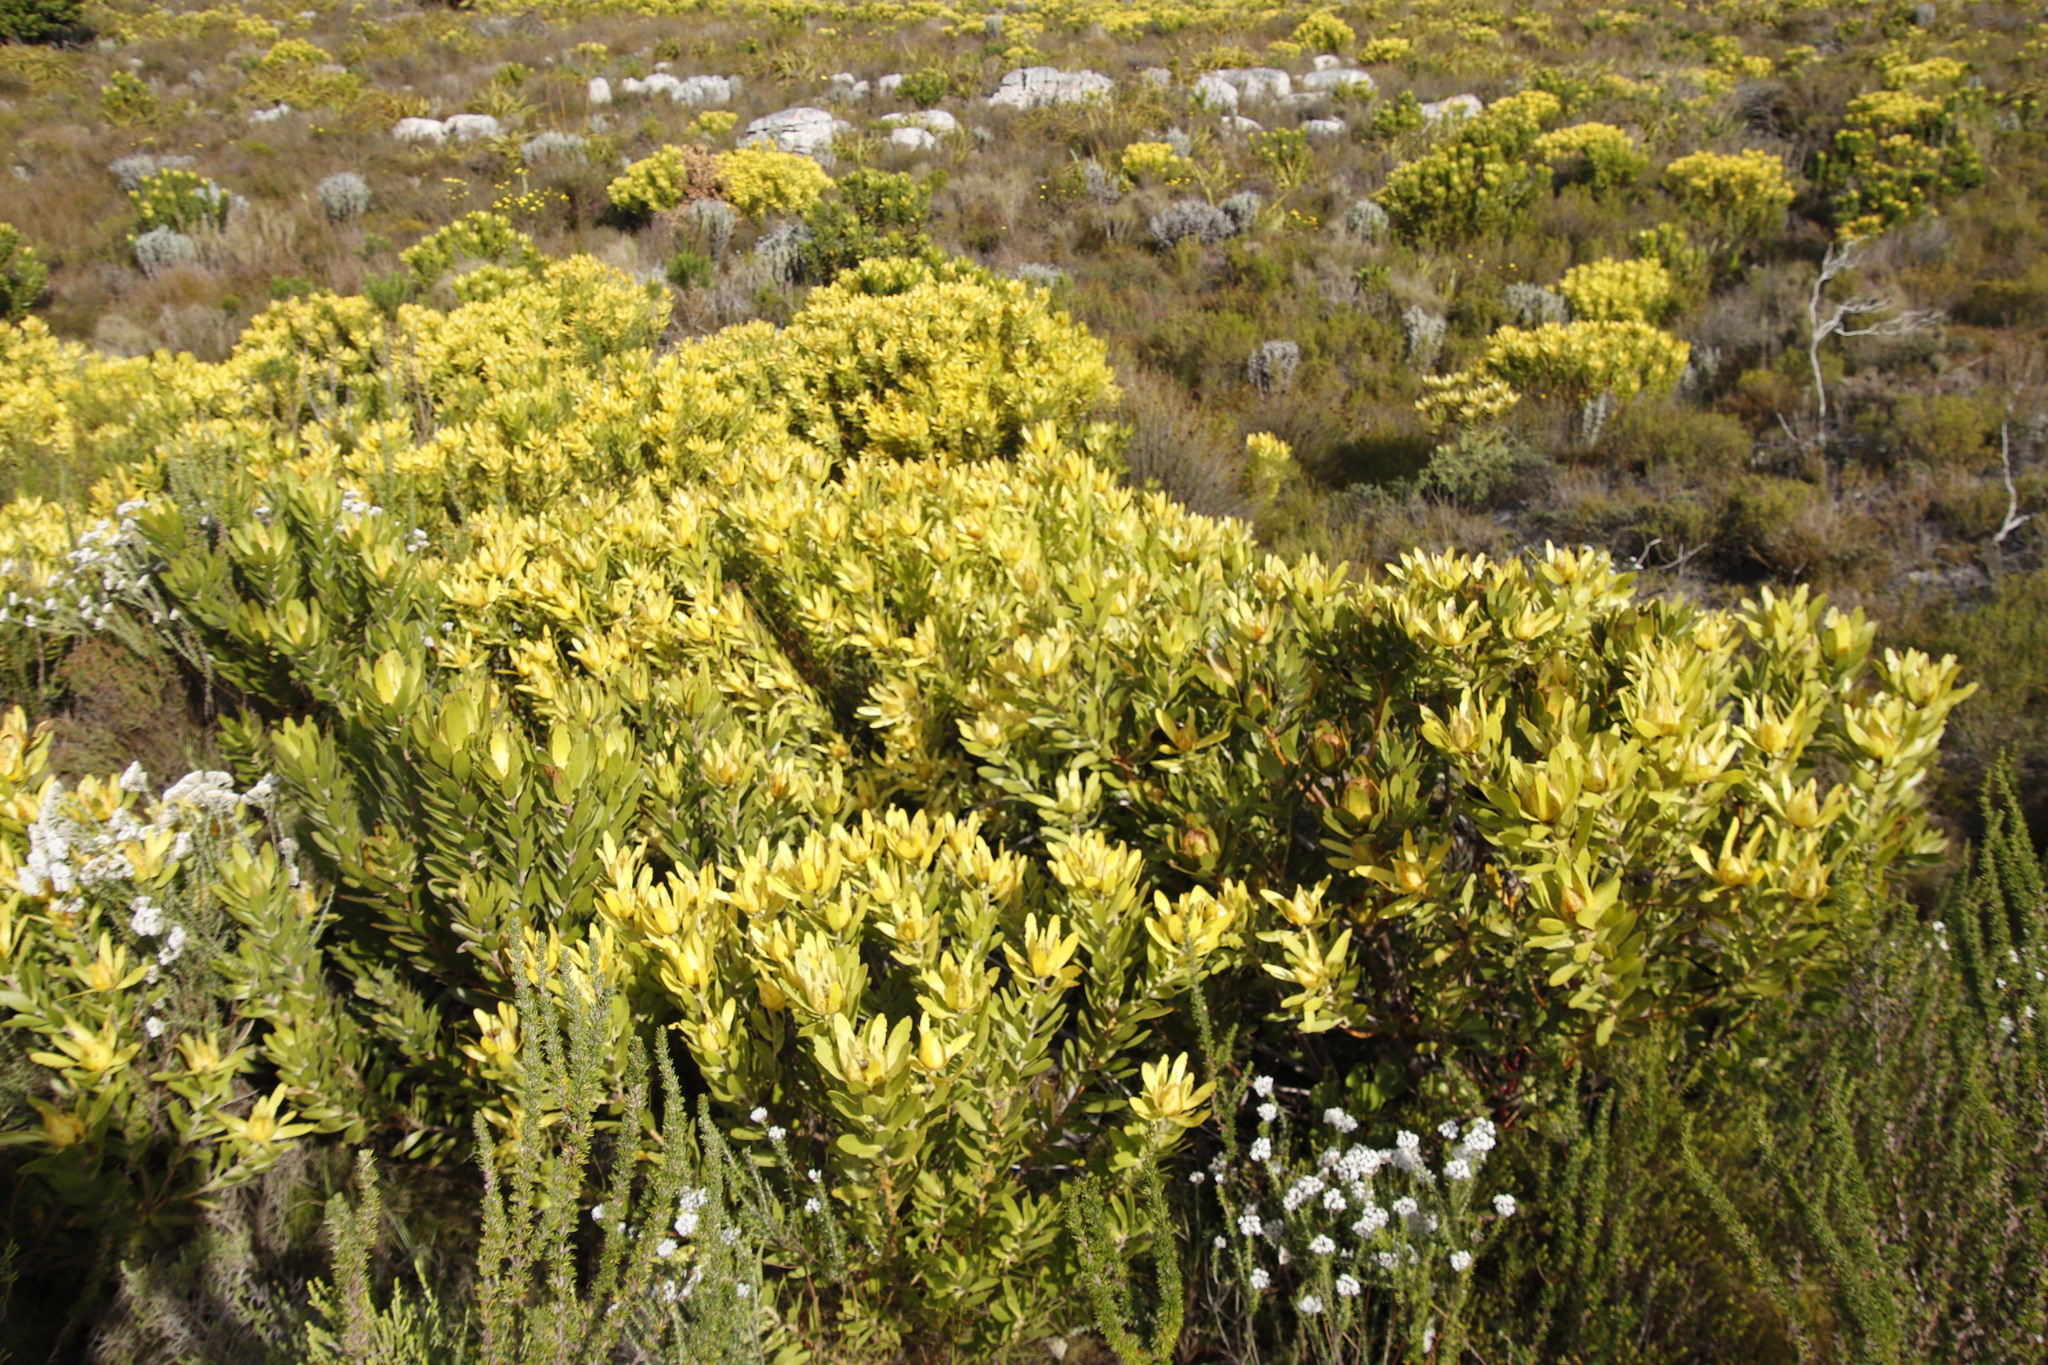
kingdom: Plantae
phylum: Tracheophyta
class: Magnoliopsida
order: Proteales
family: Proteaceae
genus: Leucadendron
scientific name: Leucadendron laureolum
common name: Golden sunshinebush
